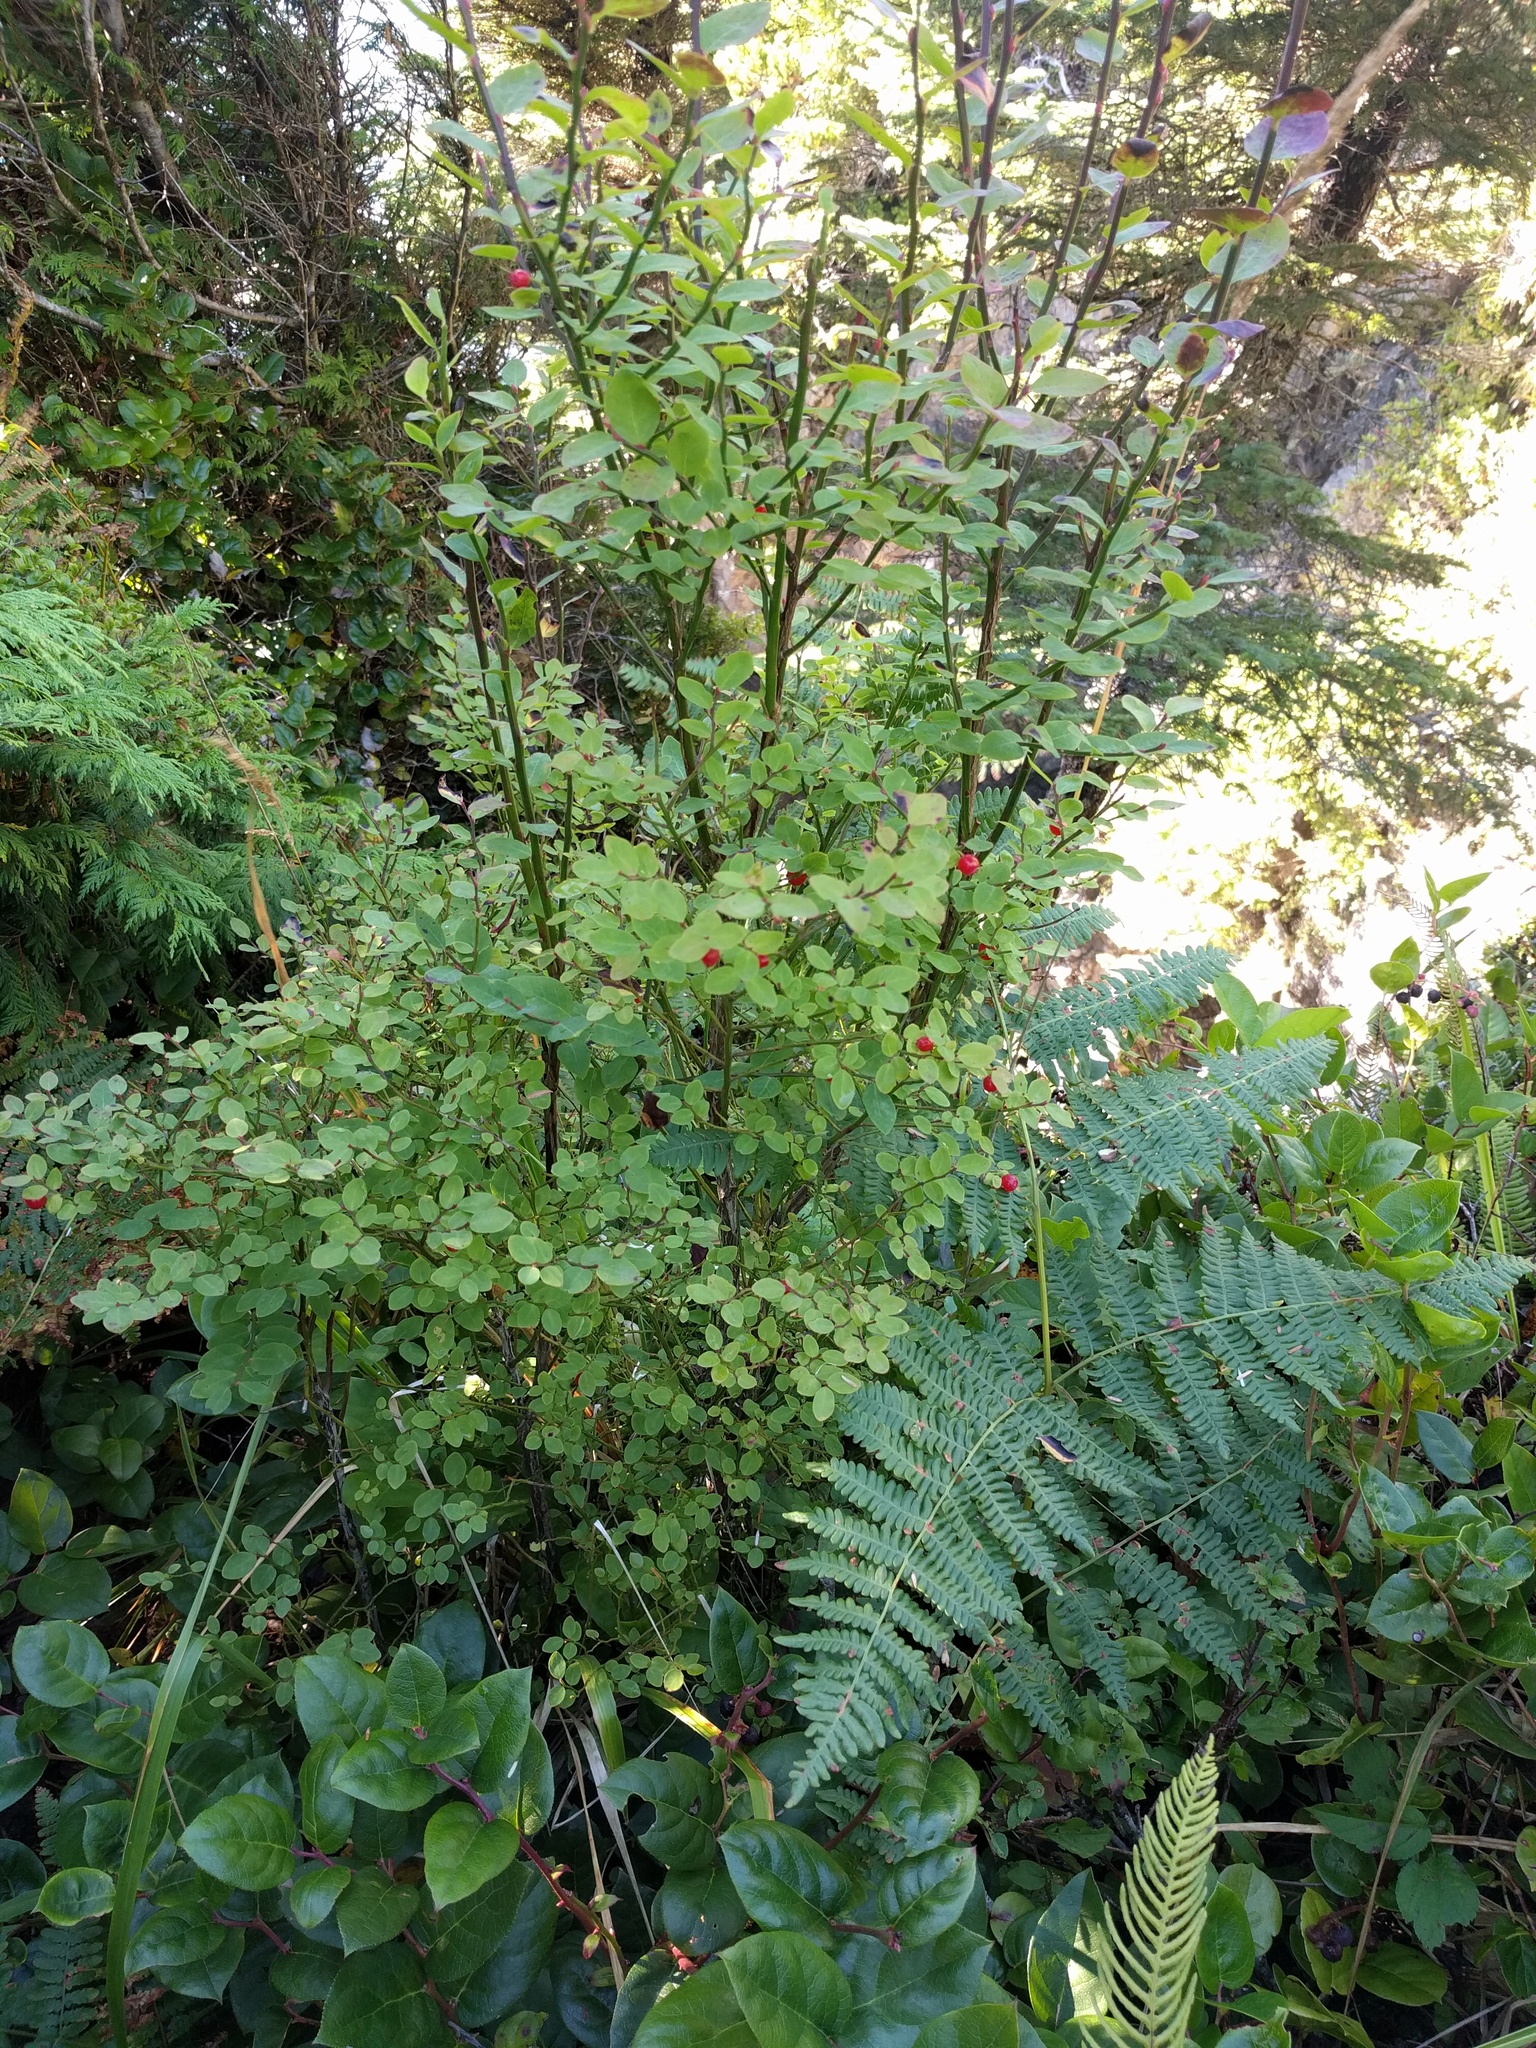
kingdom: Plantae
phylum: Tracheophyta
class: Magnoliopsida
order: Ericales
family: Ericaceae
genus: Vaccinium
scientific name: Vaccinium parvifolium
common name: Red-huckleberry
